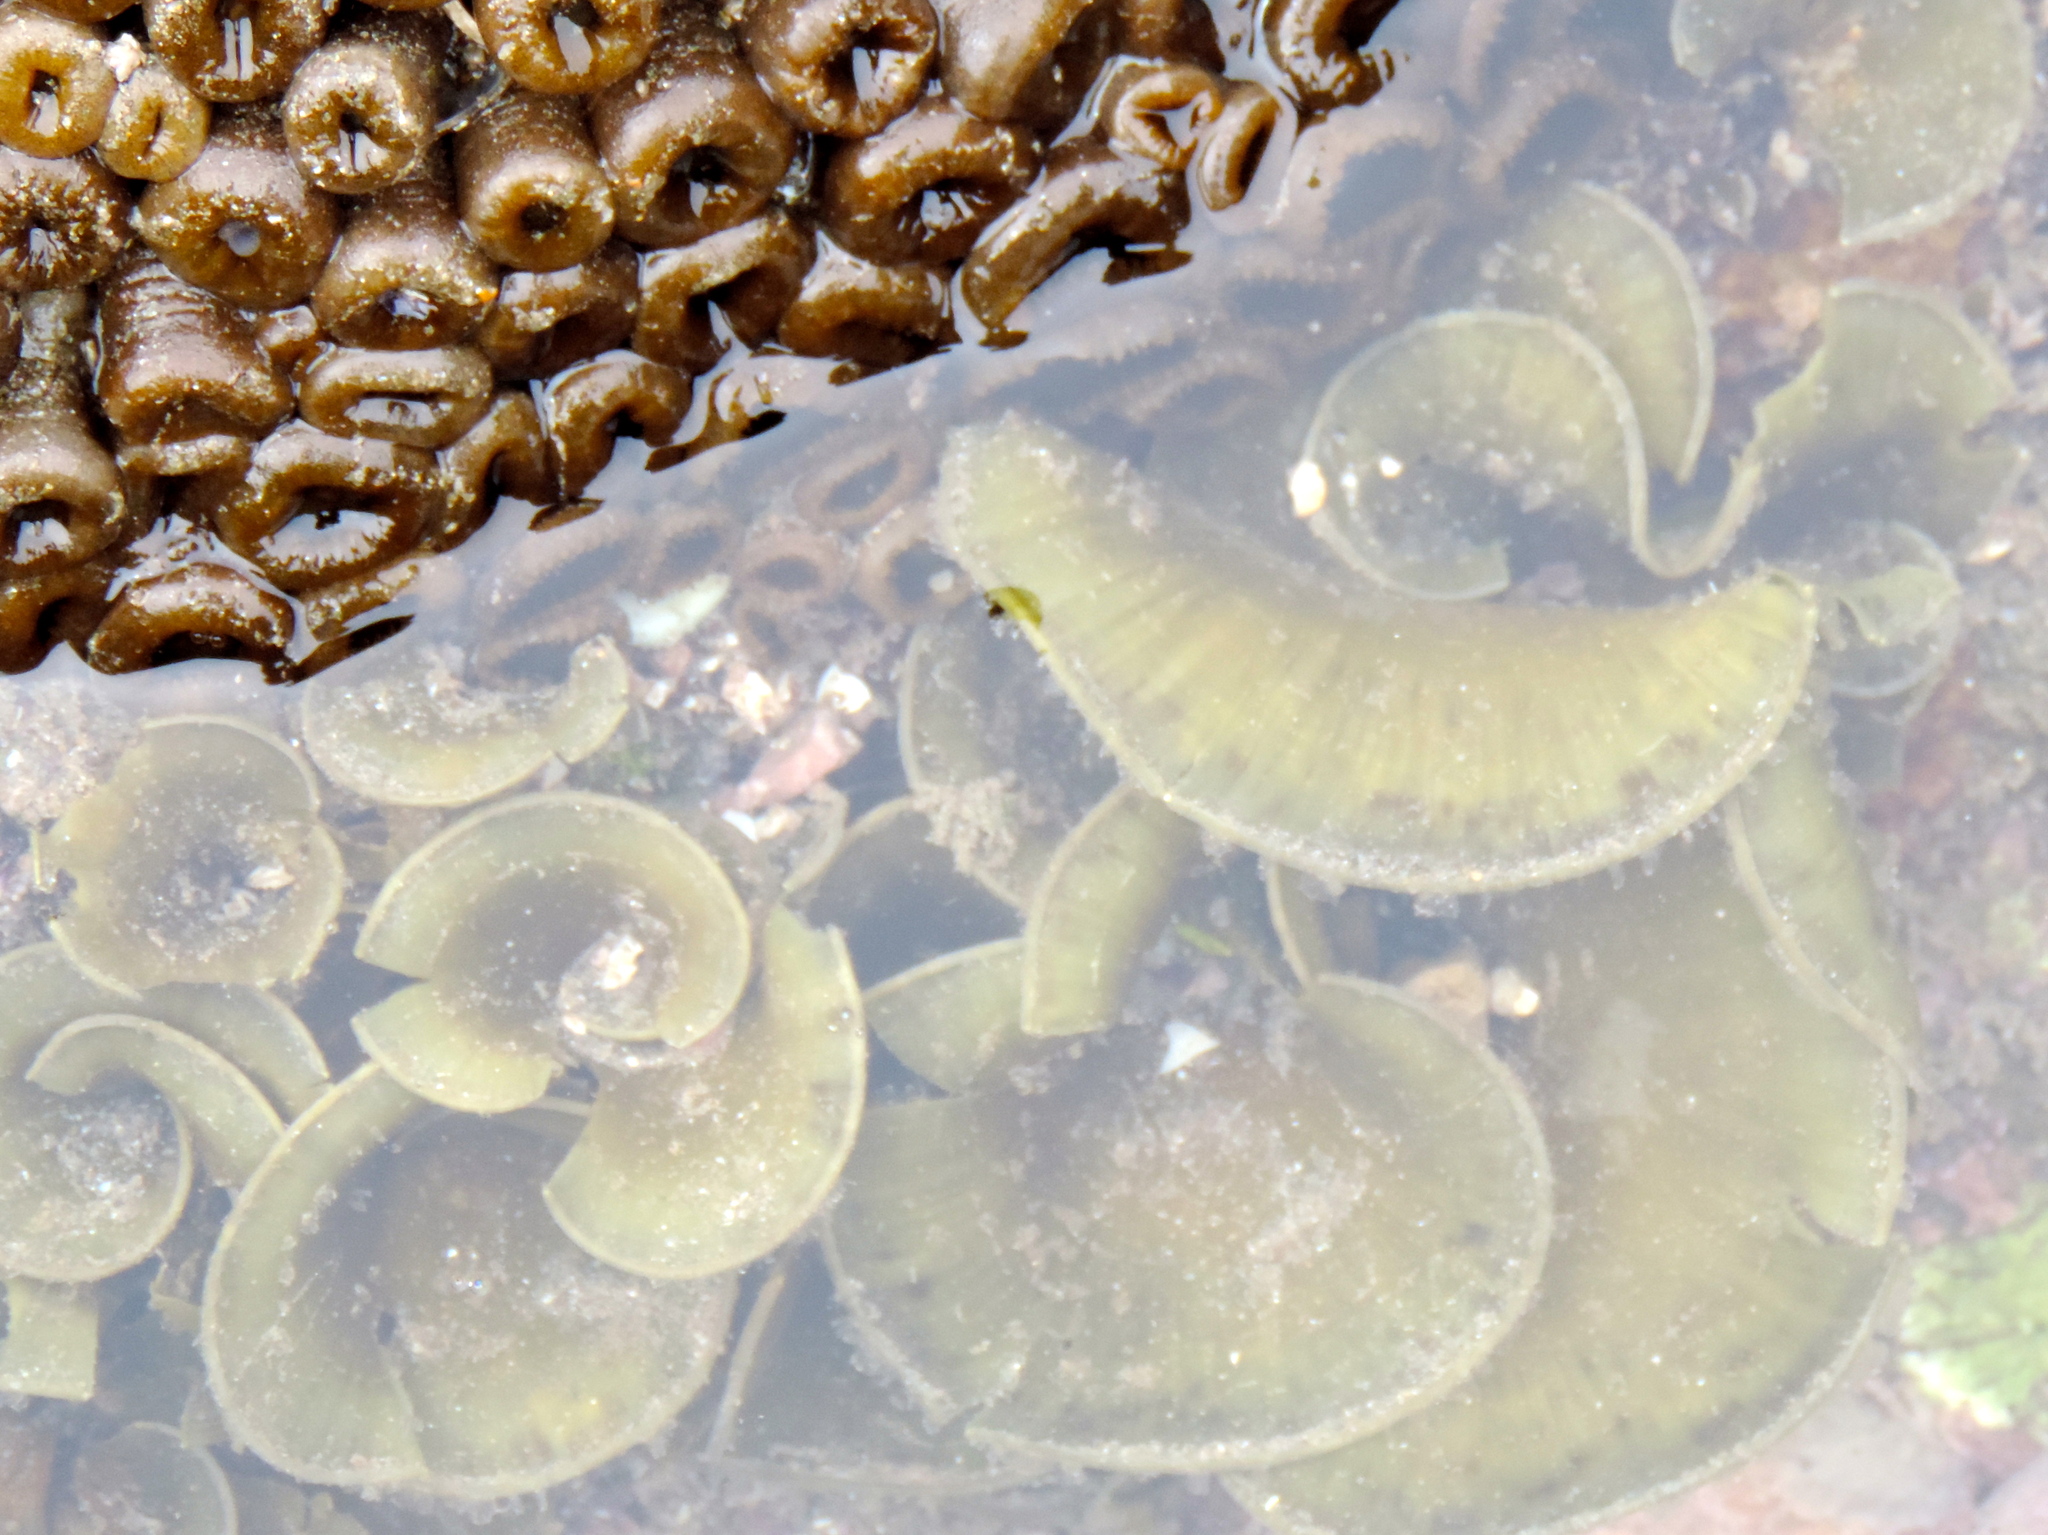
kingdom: Chromista
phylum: Ochrophyta
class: Phaeophyceae
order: Dictyotales
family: Dictyotaceae
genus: Padina
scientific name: Padina
